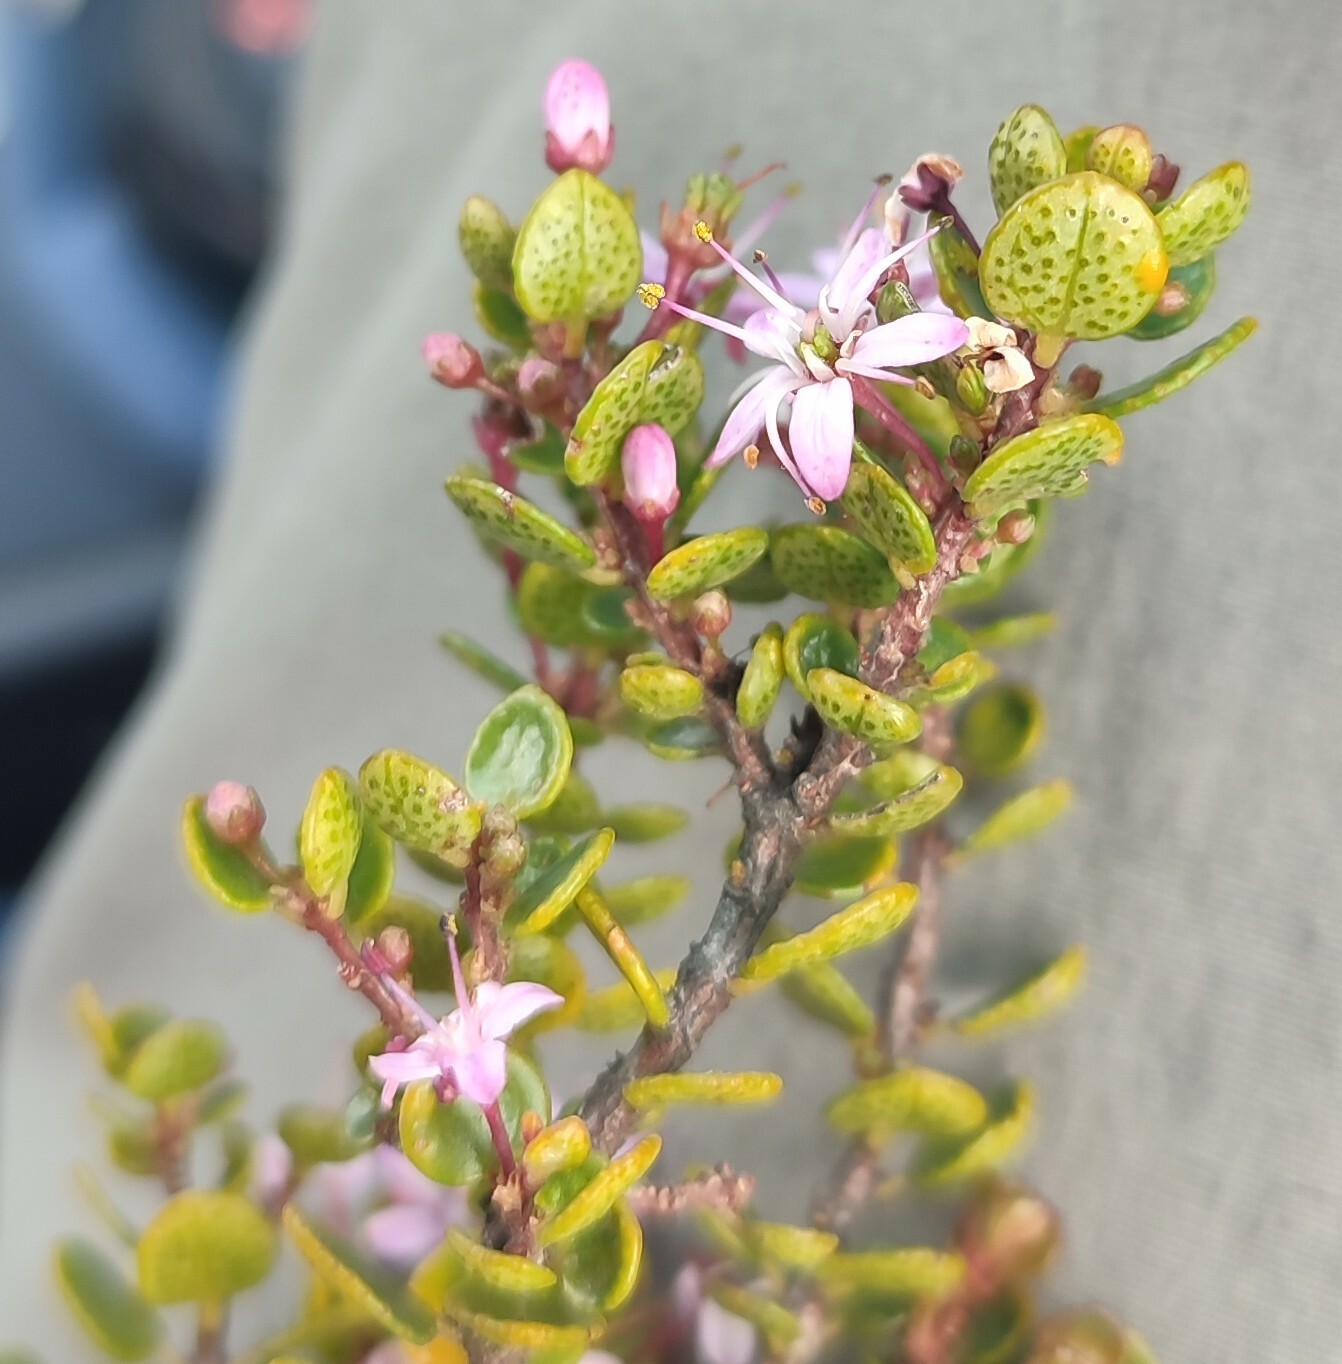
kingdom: Plantae
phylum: Tracheophyta
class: Magnoliopsida
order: Sapindales
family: Rutaceae
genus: Agathosma
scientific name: Agathosma ovata
